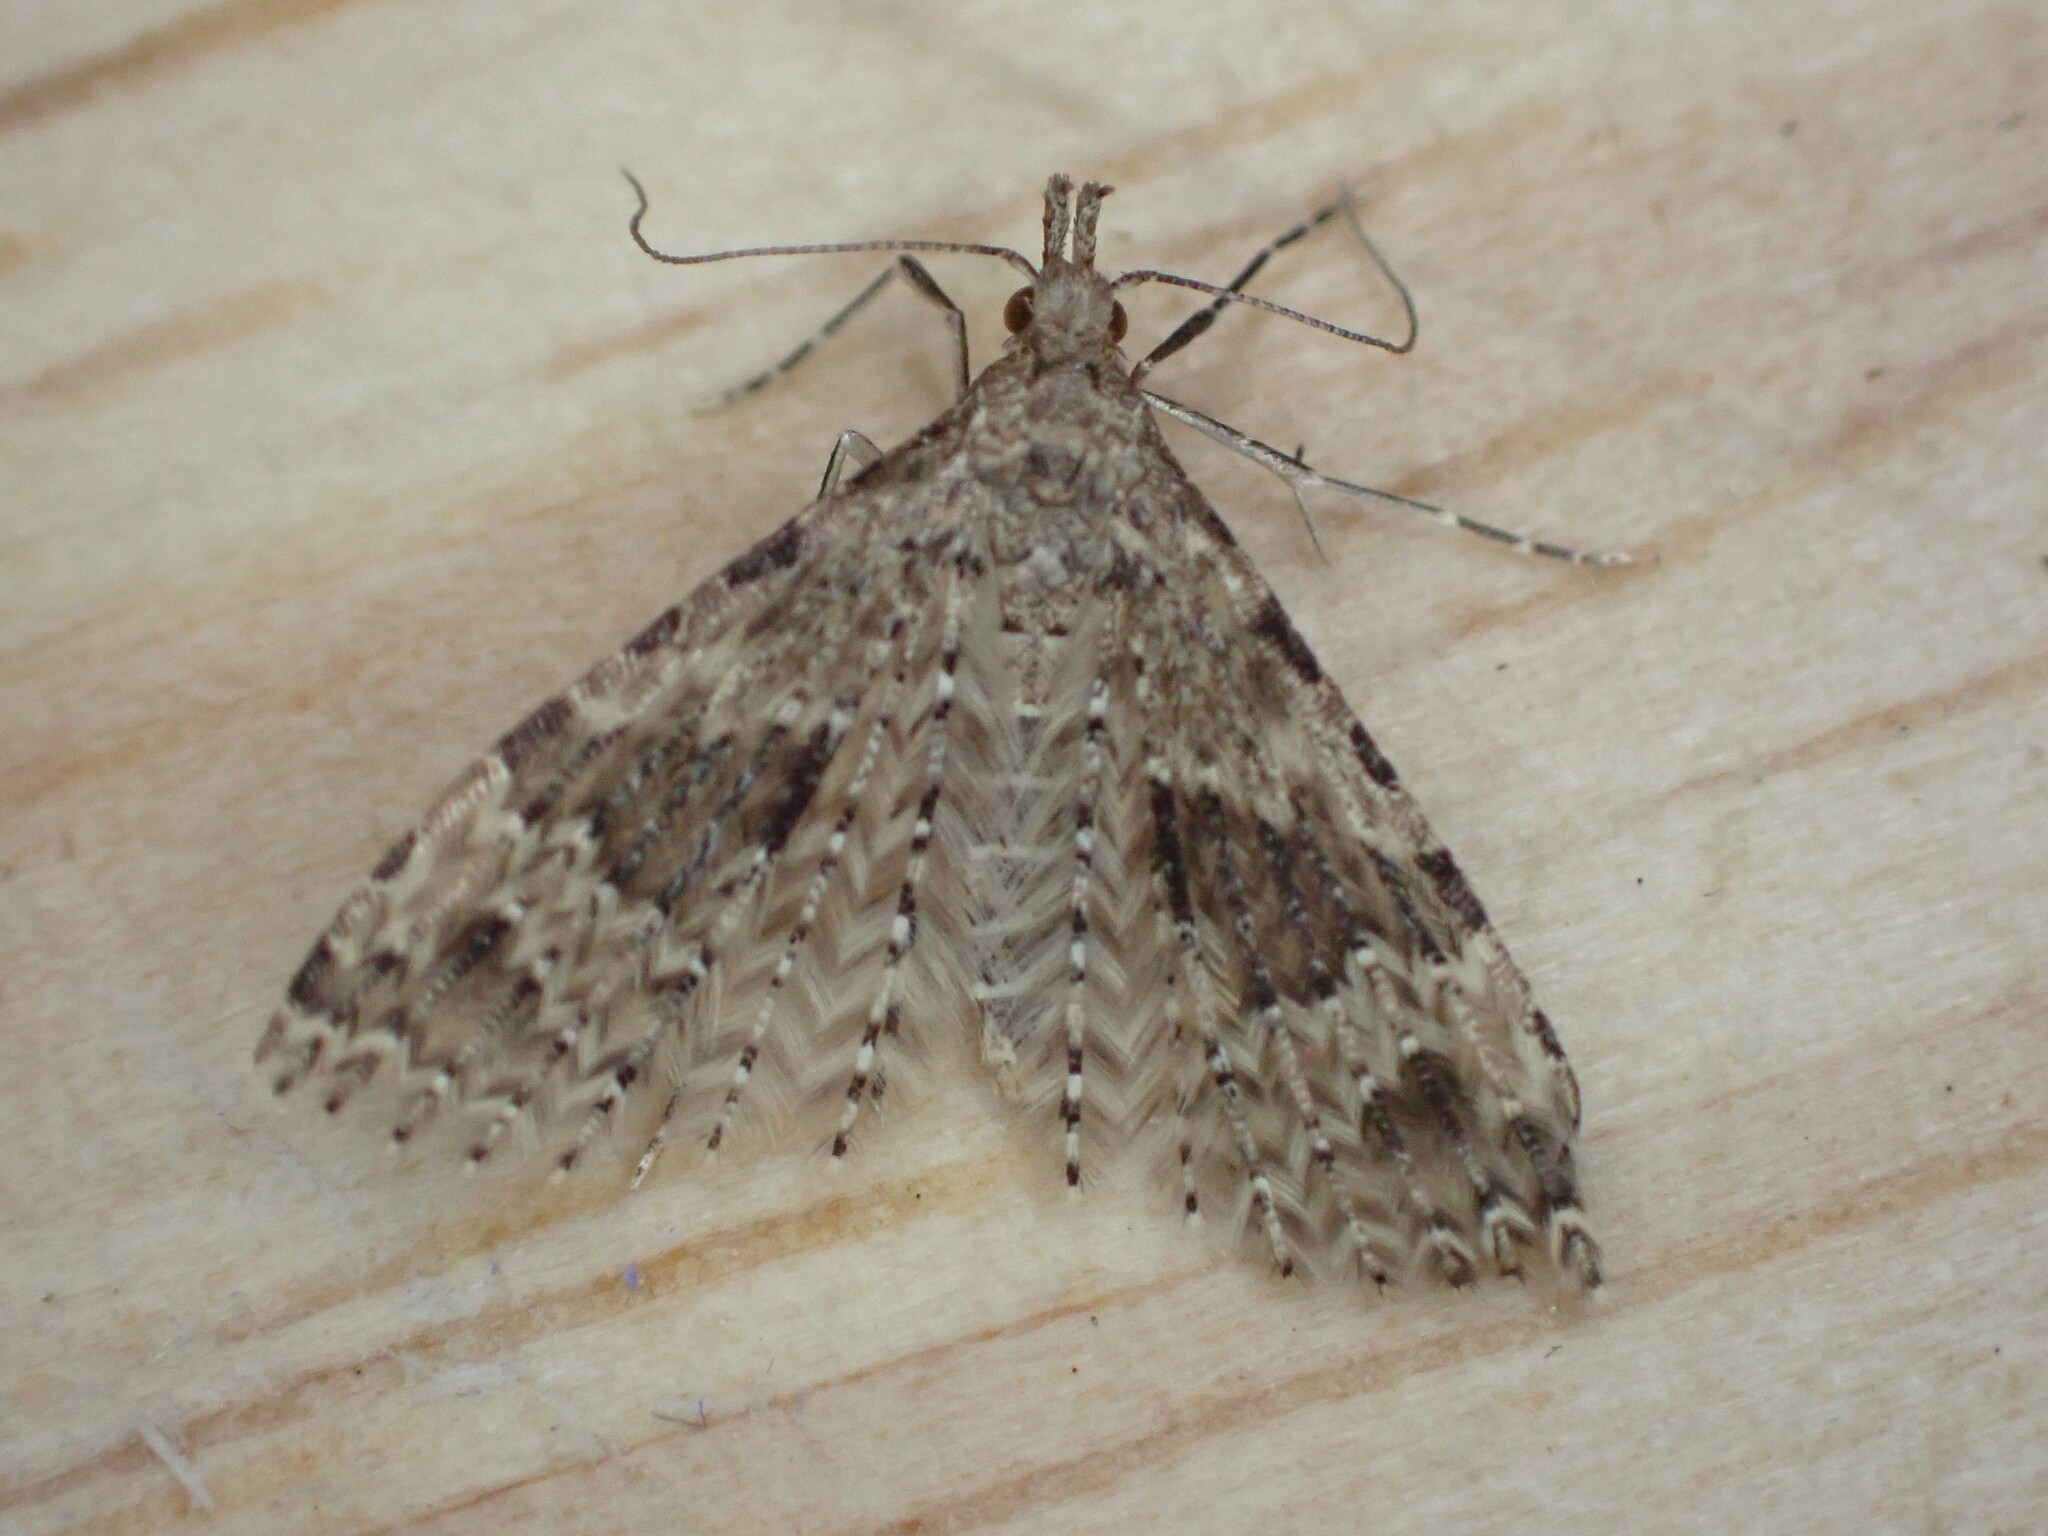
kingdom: Animalia
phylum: Arthropoda
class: Insecta
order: Lepidoptera
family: Alucitidae
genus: Alucita
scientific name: Alucita hexadactyla
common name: Twenty-plume moth
